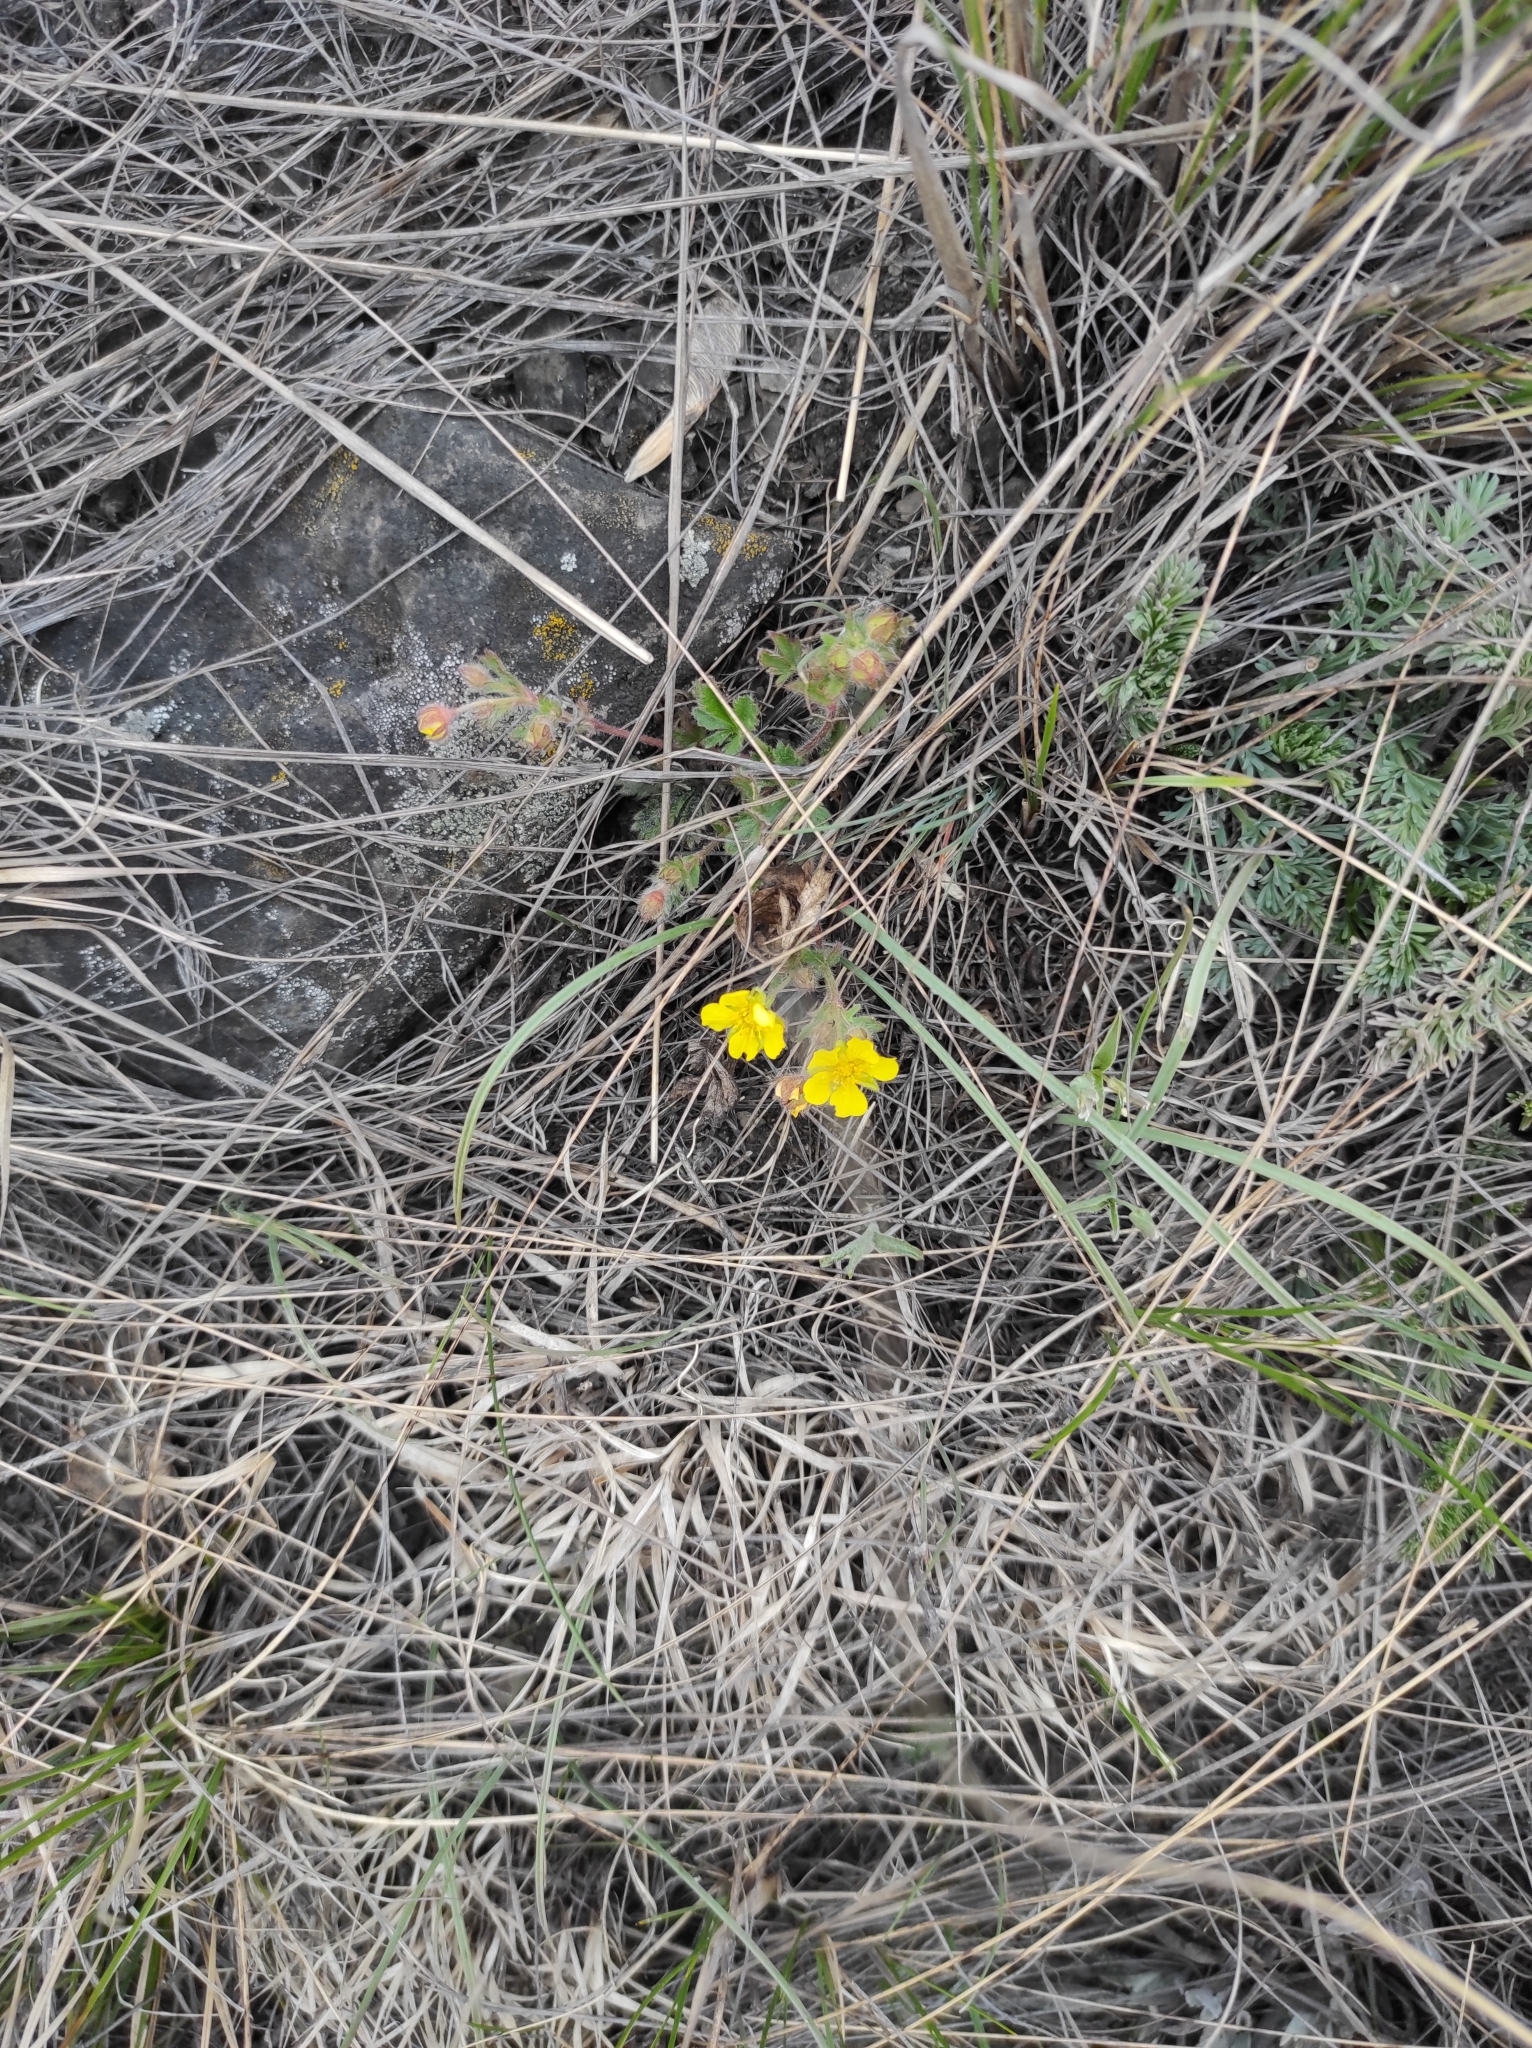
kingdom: Plantae
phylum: Tracheophyta
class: Magnoliopsida
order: Rosales
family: Rosaceae
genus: Potentilla
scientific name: Potentilla humifusa
